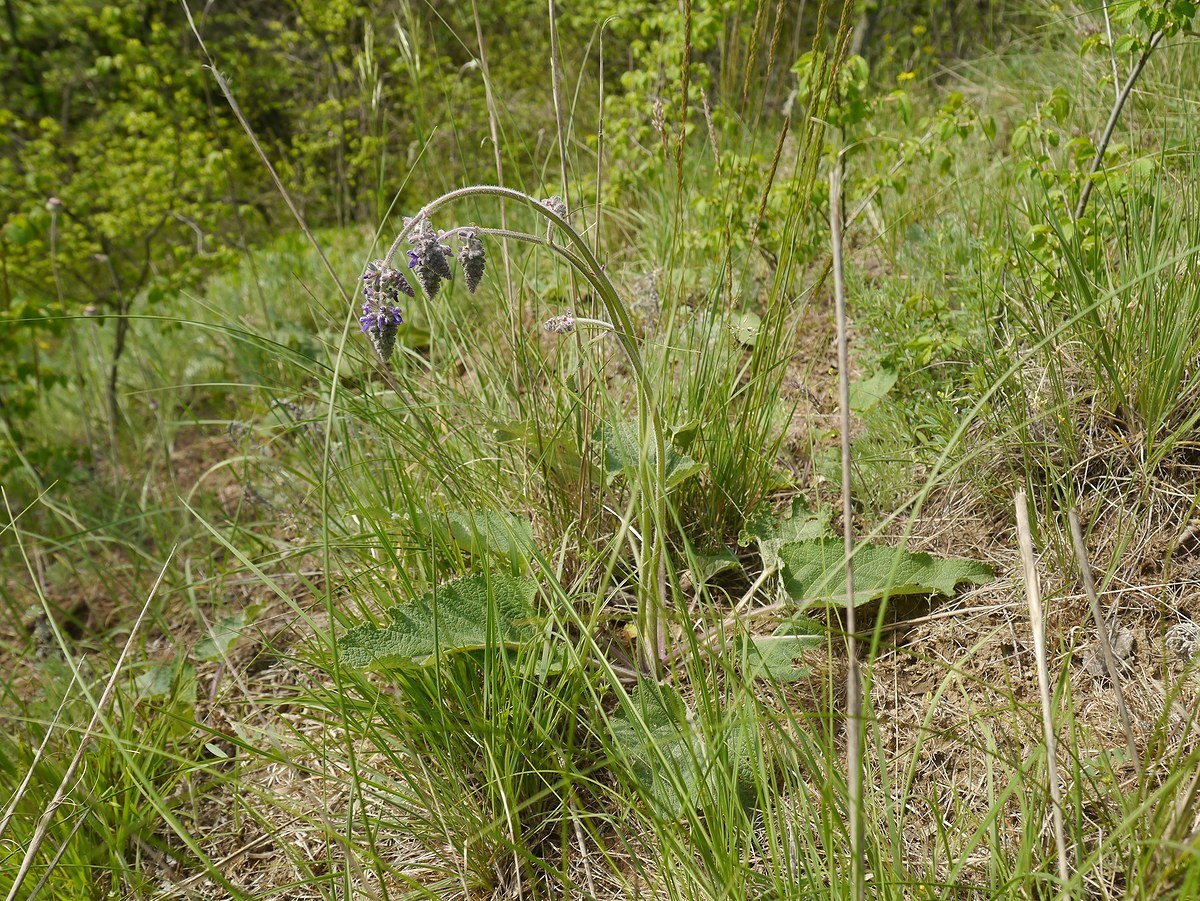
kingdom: Plantae
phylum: Tracheophyta
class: Magnoliopsida
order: Lamiales
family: Lamiaceae
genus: Salvia
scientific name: Salvia nutans
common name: Nodding sage
